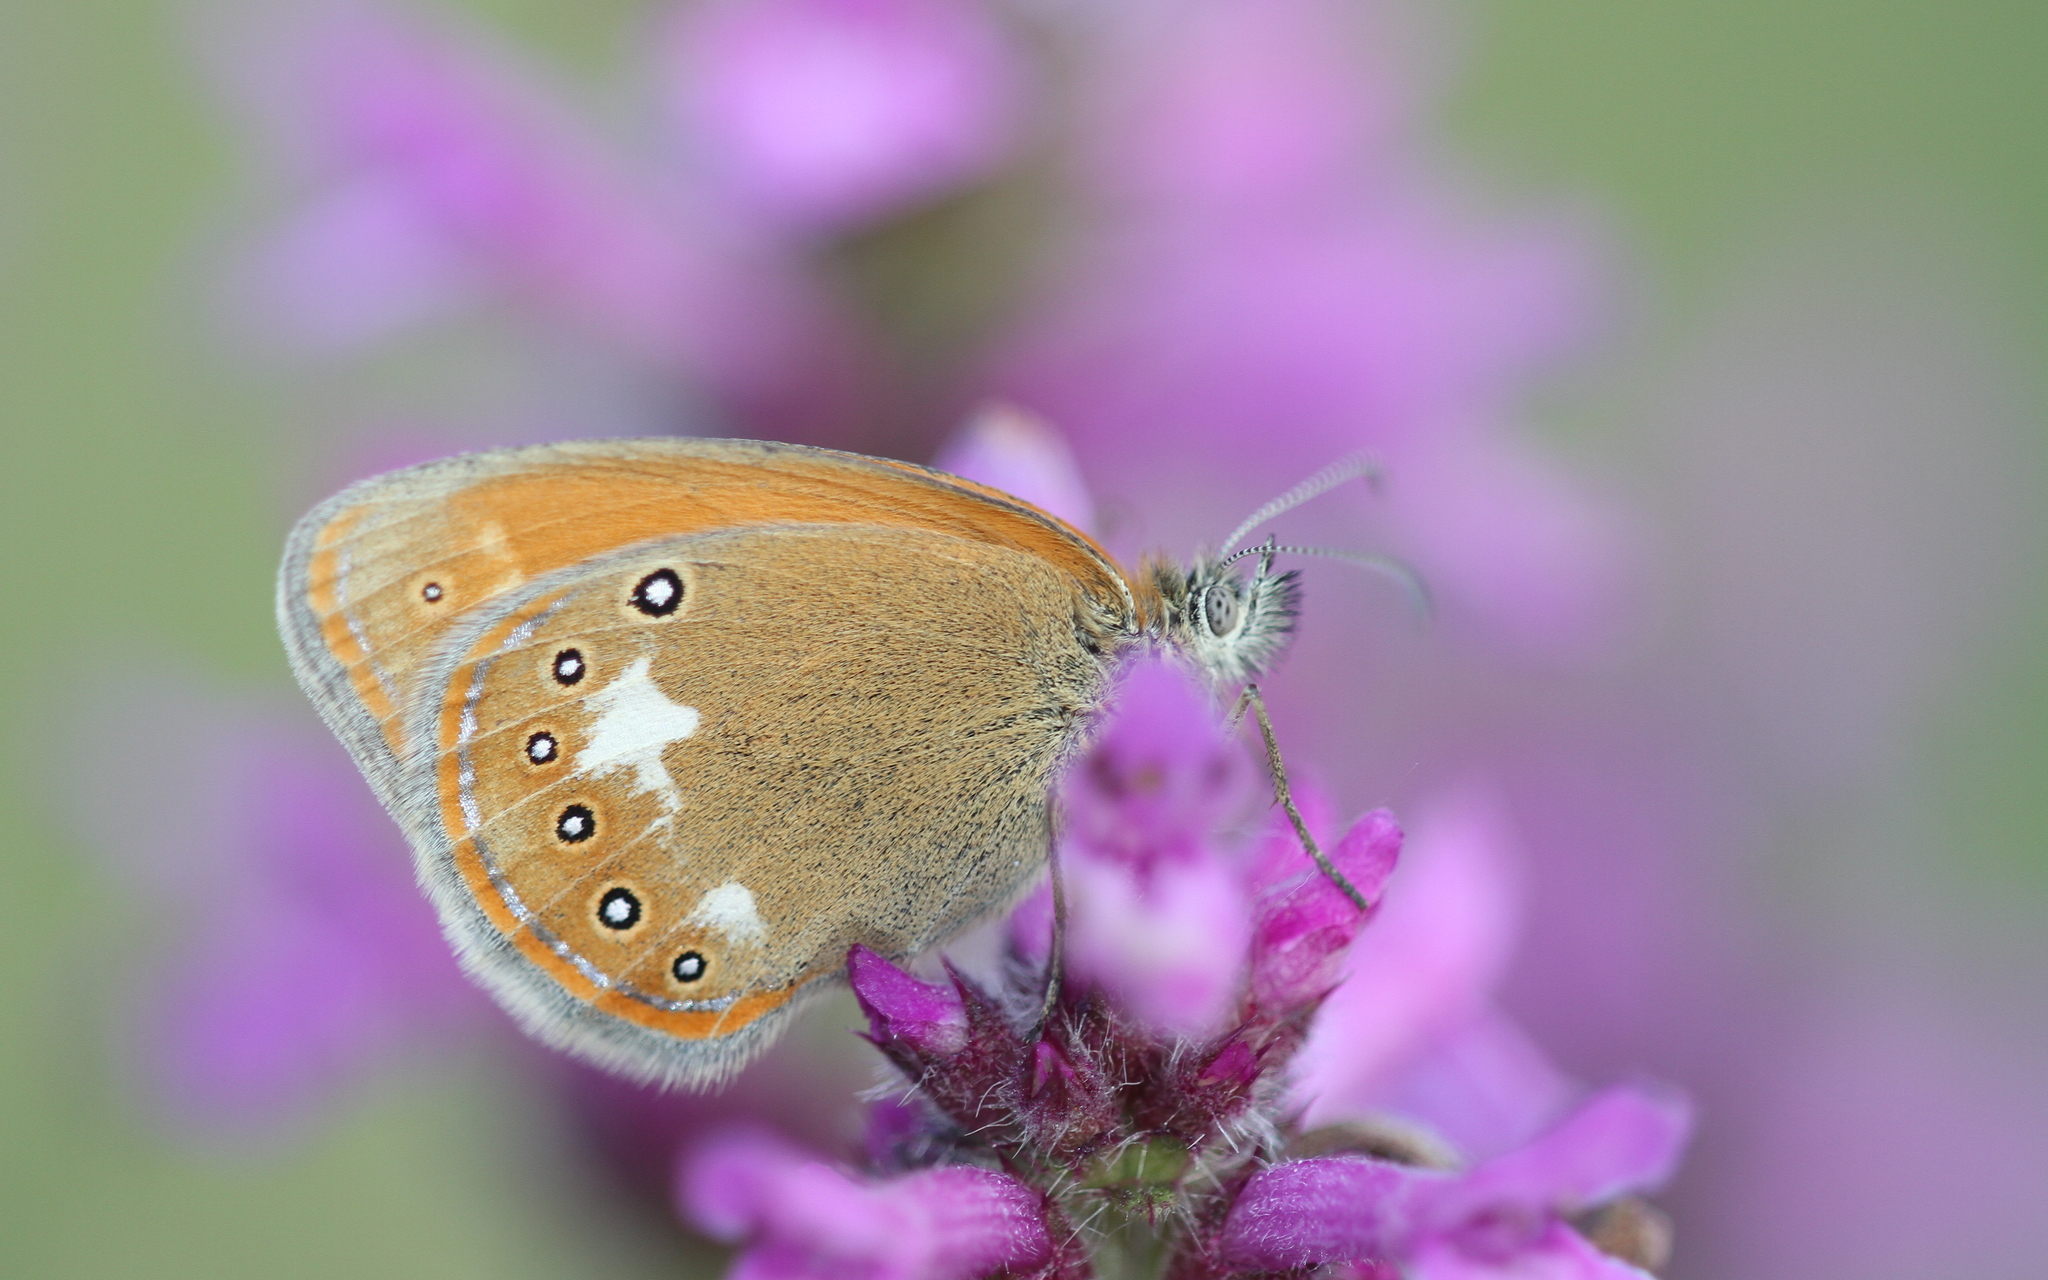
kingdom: Animalia
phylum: Arthropoda
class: Insecta
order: Lepidoptera
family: Nymphalidae
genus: Coenonympha
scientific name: Coenonympha iphis
